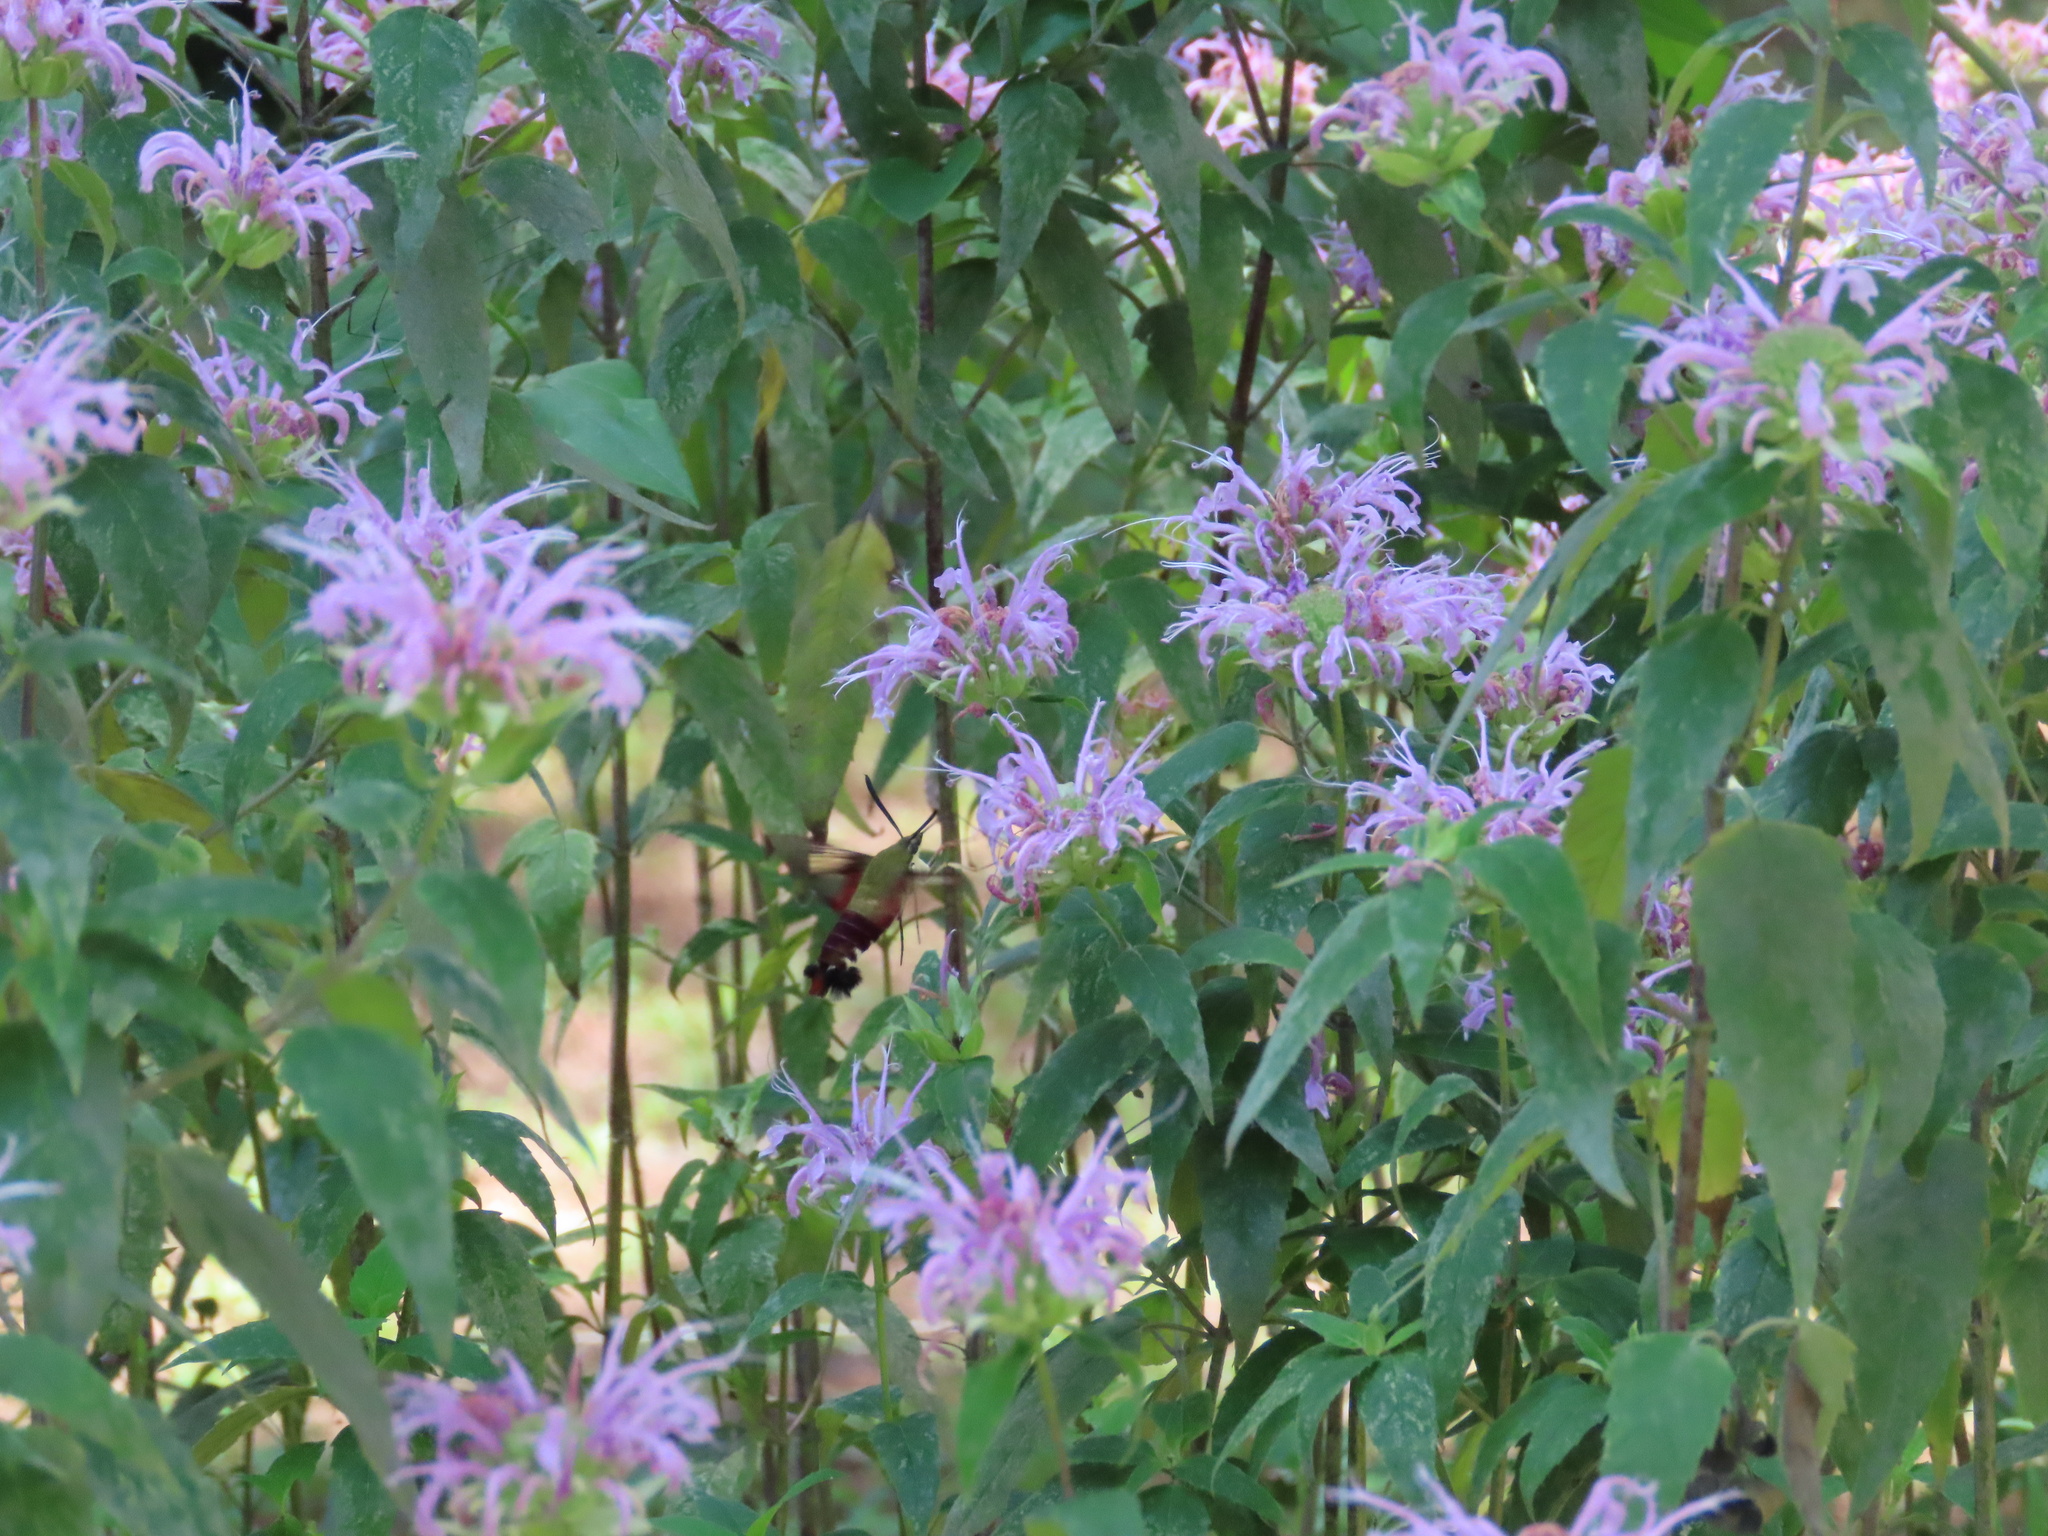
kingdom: Animalia
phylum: Arthropoda
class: Insecta
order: Lepidoptera
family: Sphingidae
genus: Hemaris
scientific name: Hemaris thysbe
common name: Common clear-wing
